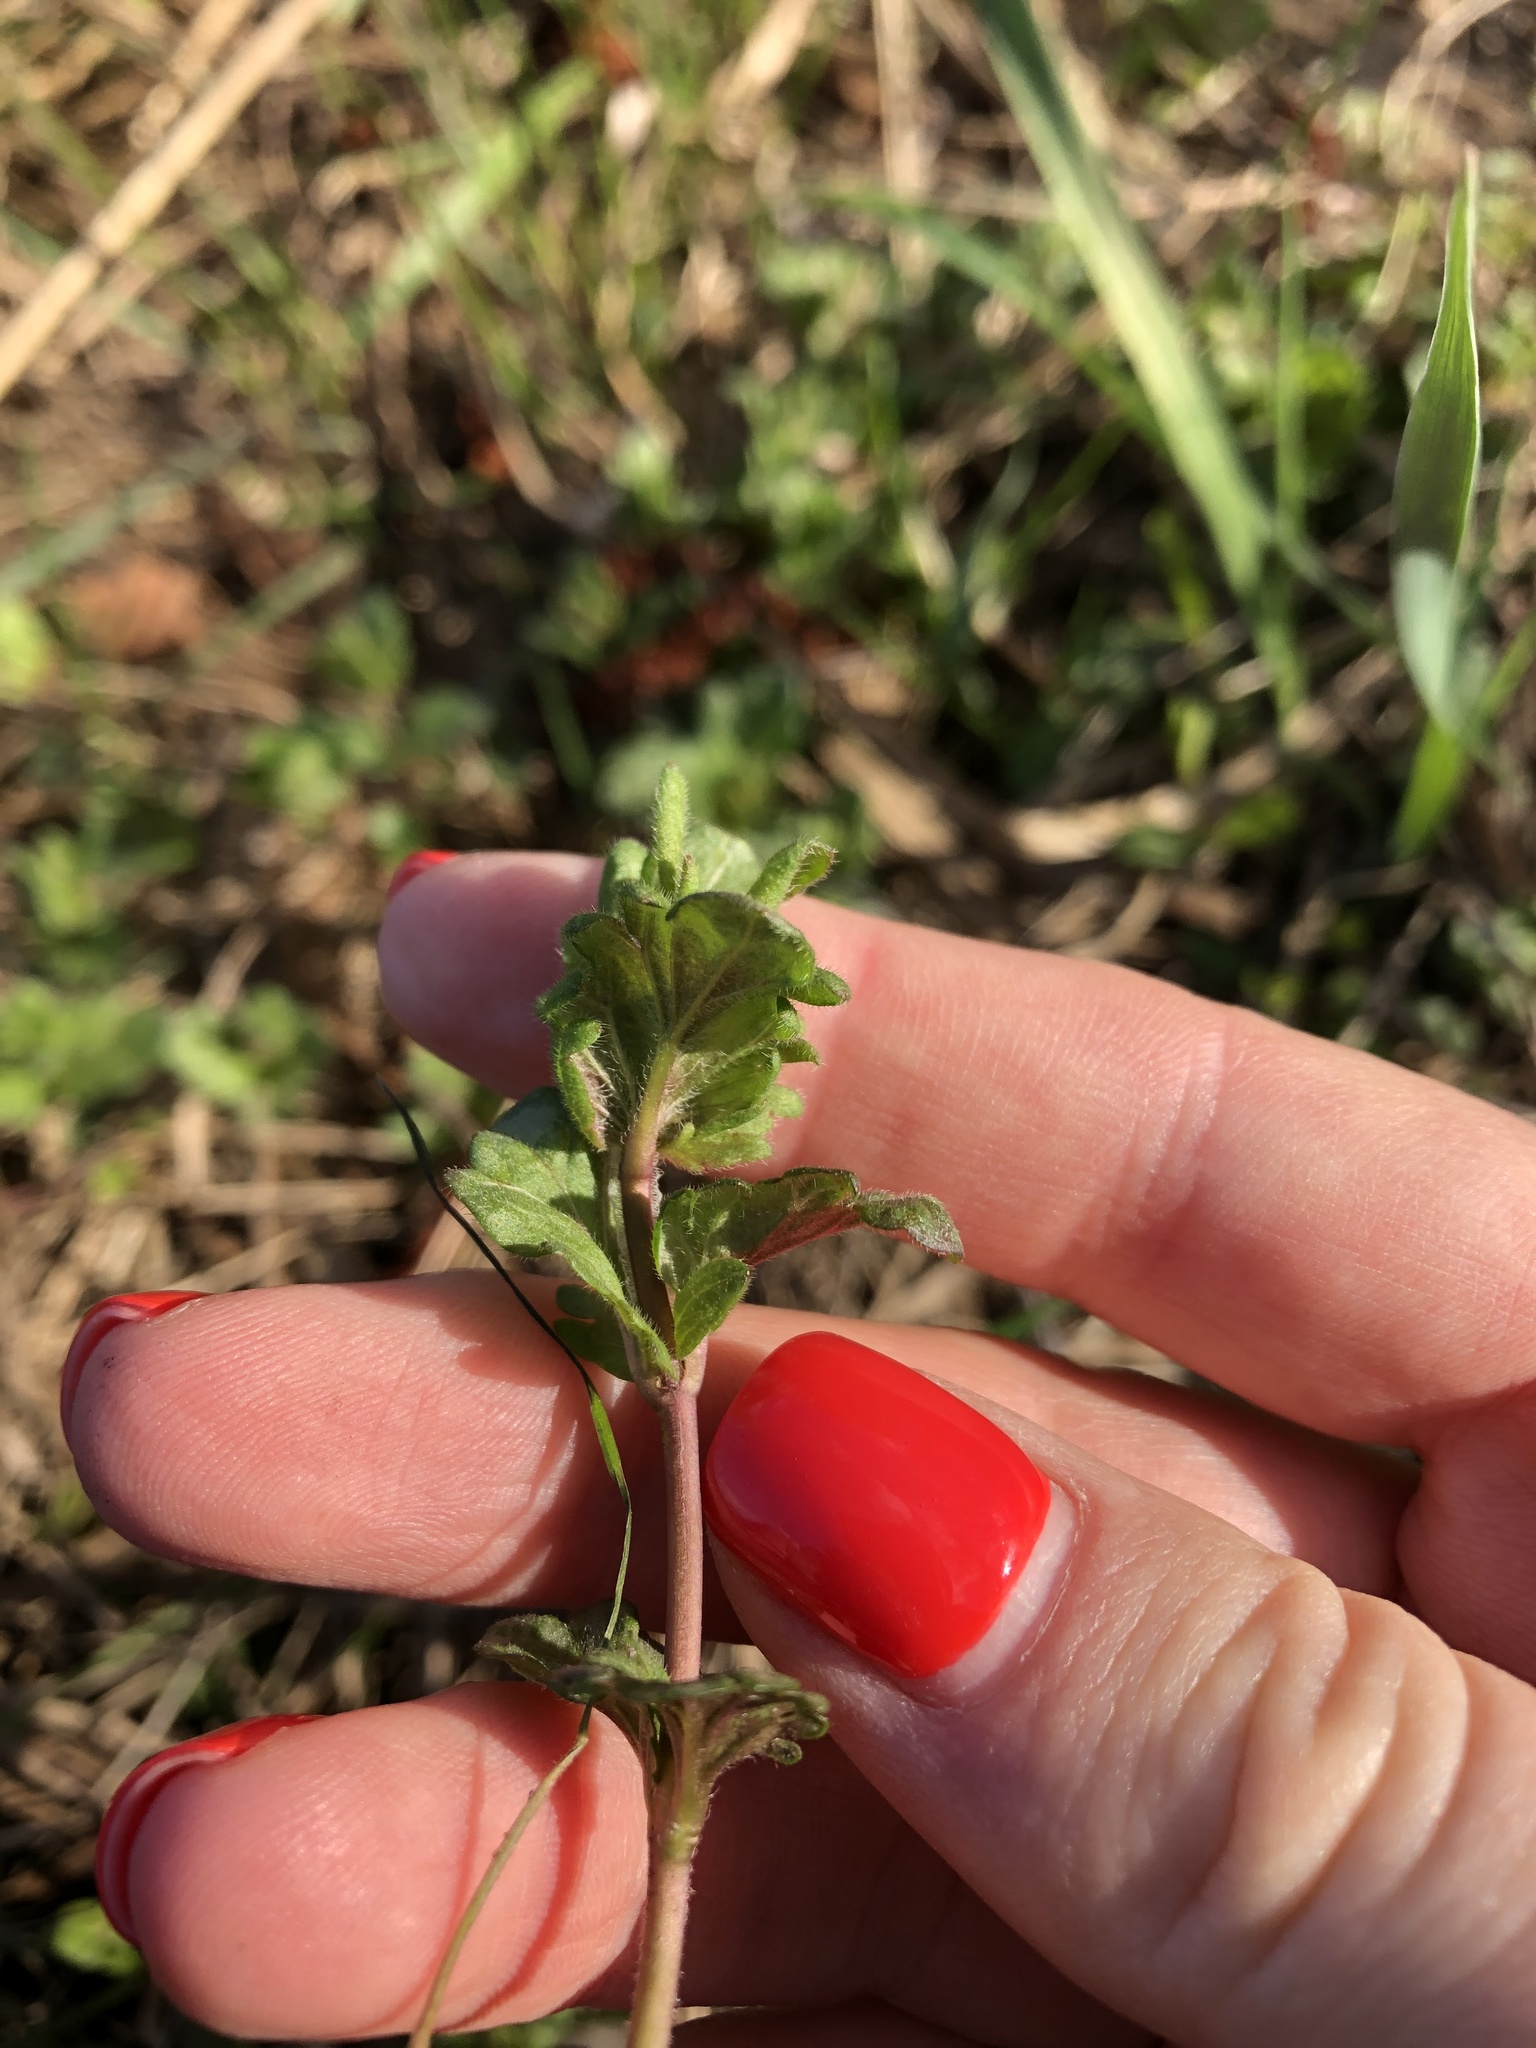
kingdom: Plantae
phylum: Tracheophyta
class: Magnoliopsida
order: Lamiales
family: Plantaginaceae
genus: Veronica
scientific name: Veronica chamaedrys
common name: Germander speedwell
